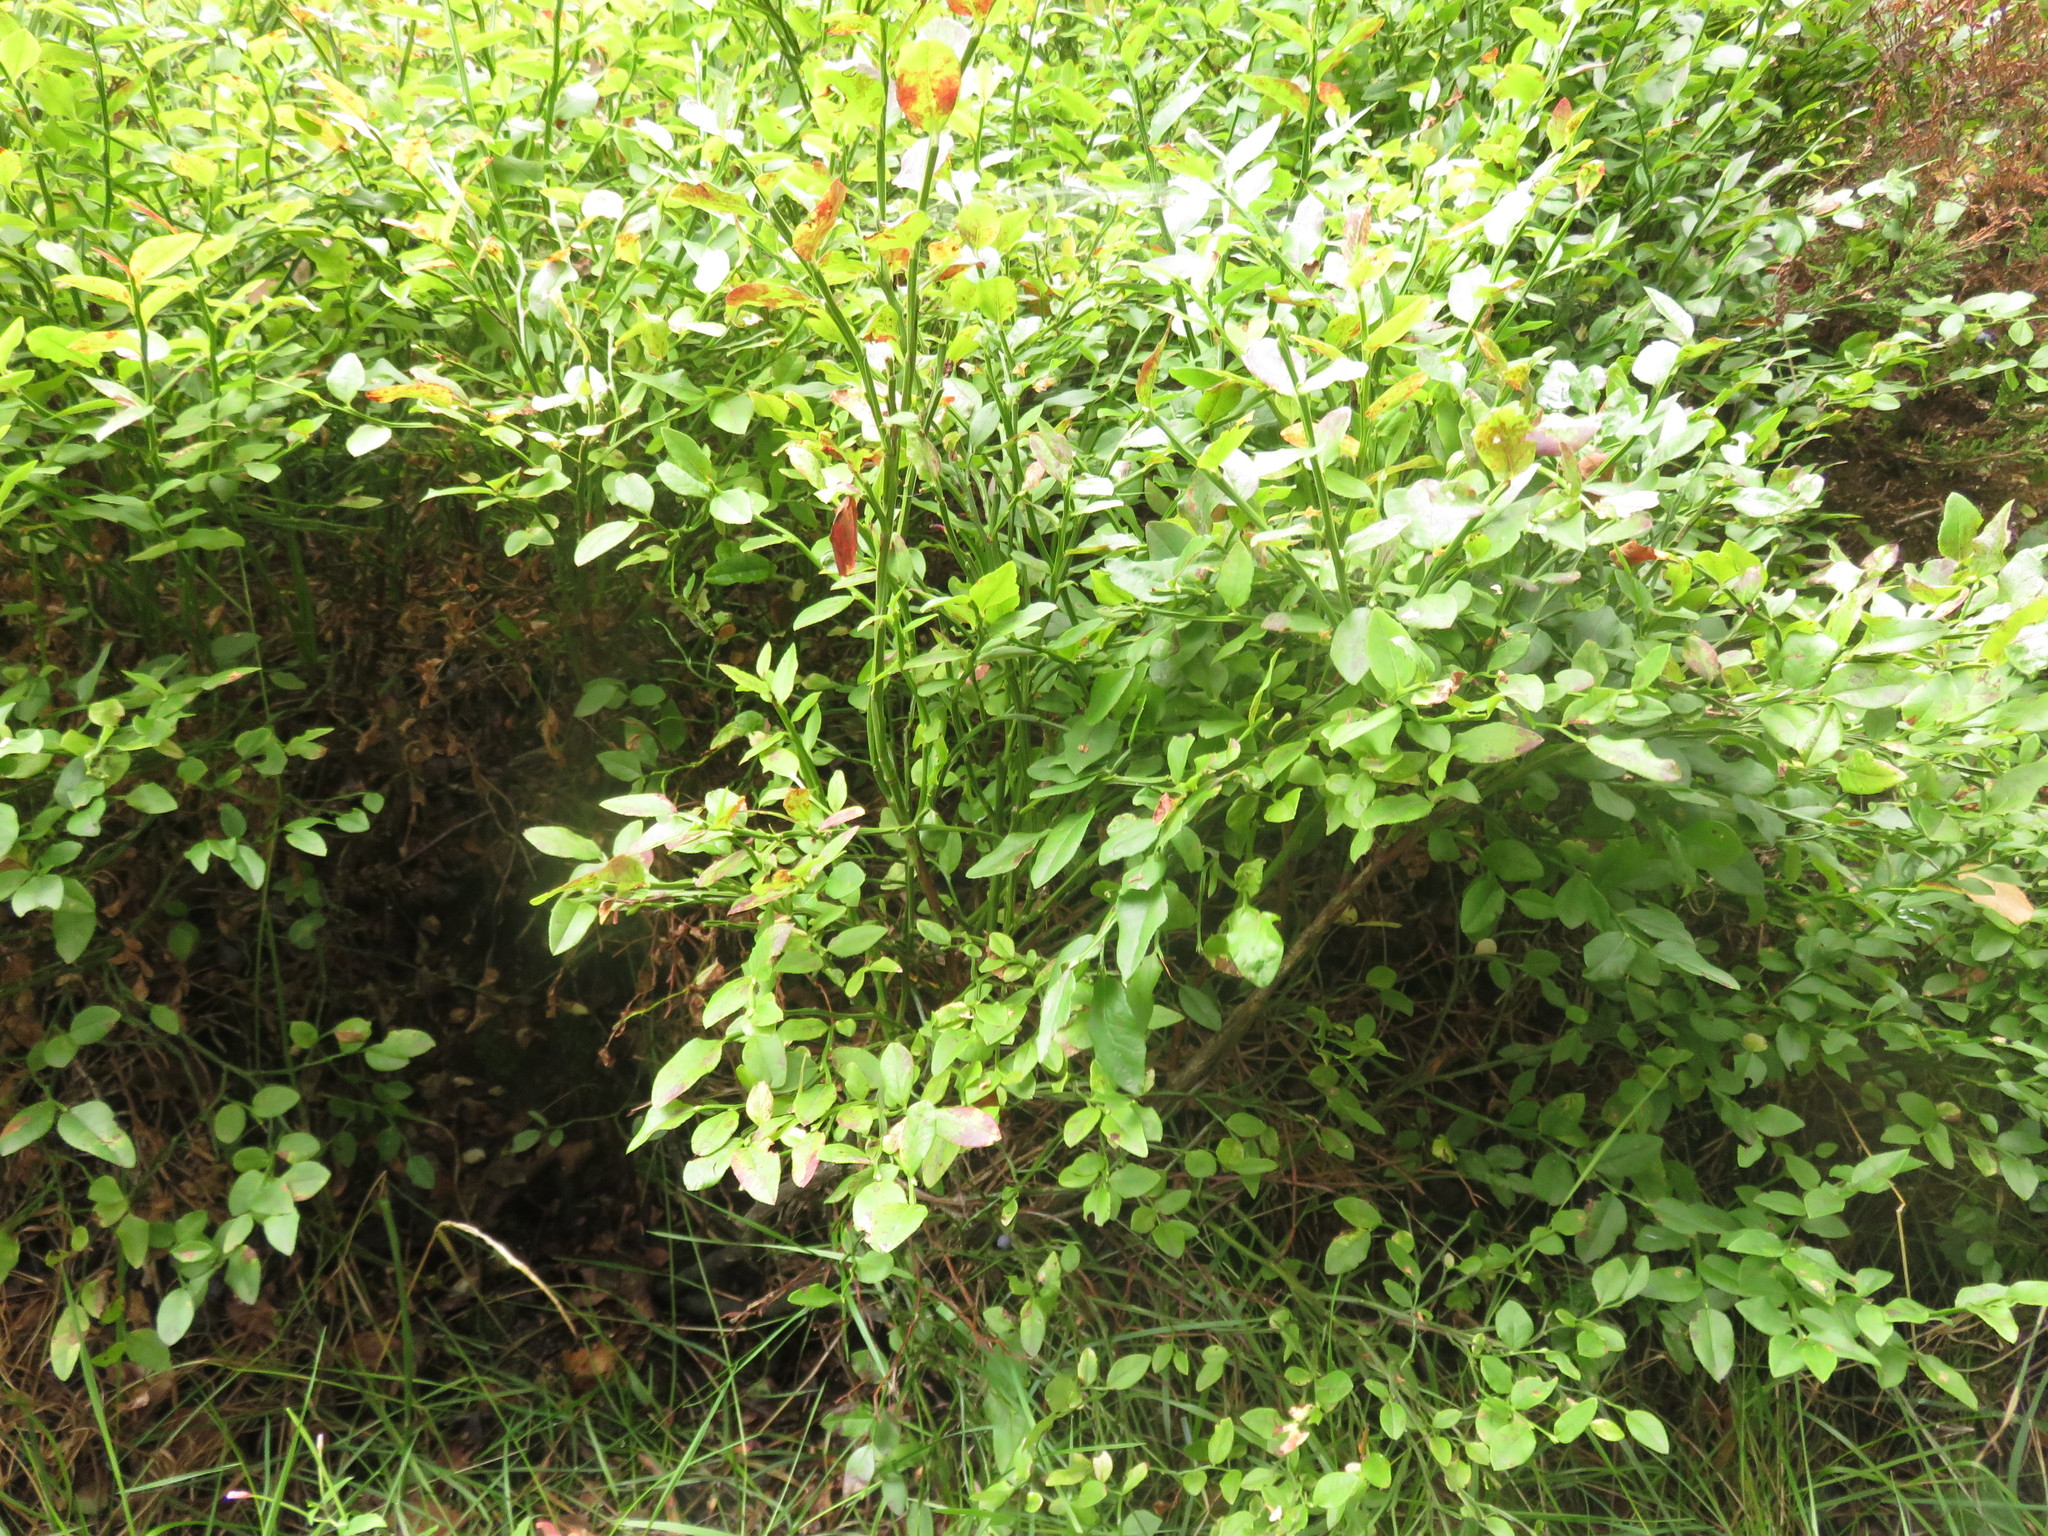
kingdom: Plantae
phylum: Tracheophyta
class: Magnoliopsida
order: Ericales
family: Ericaceae
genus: Vaccinium
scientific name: Vaccinium myrtillus
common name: Bilberry
